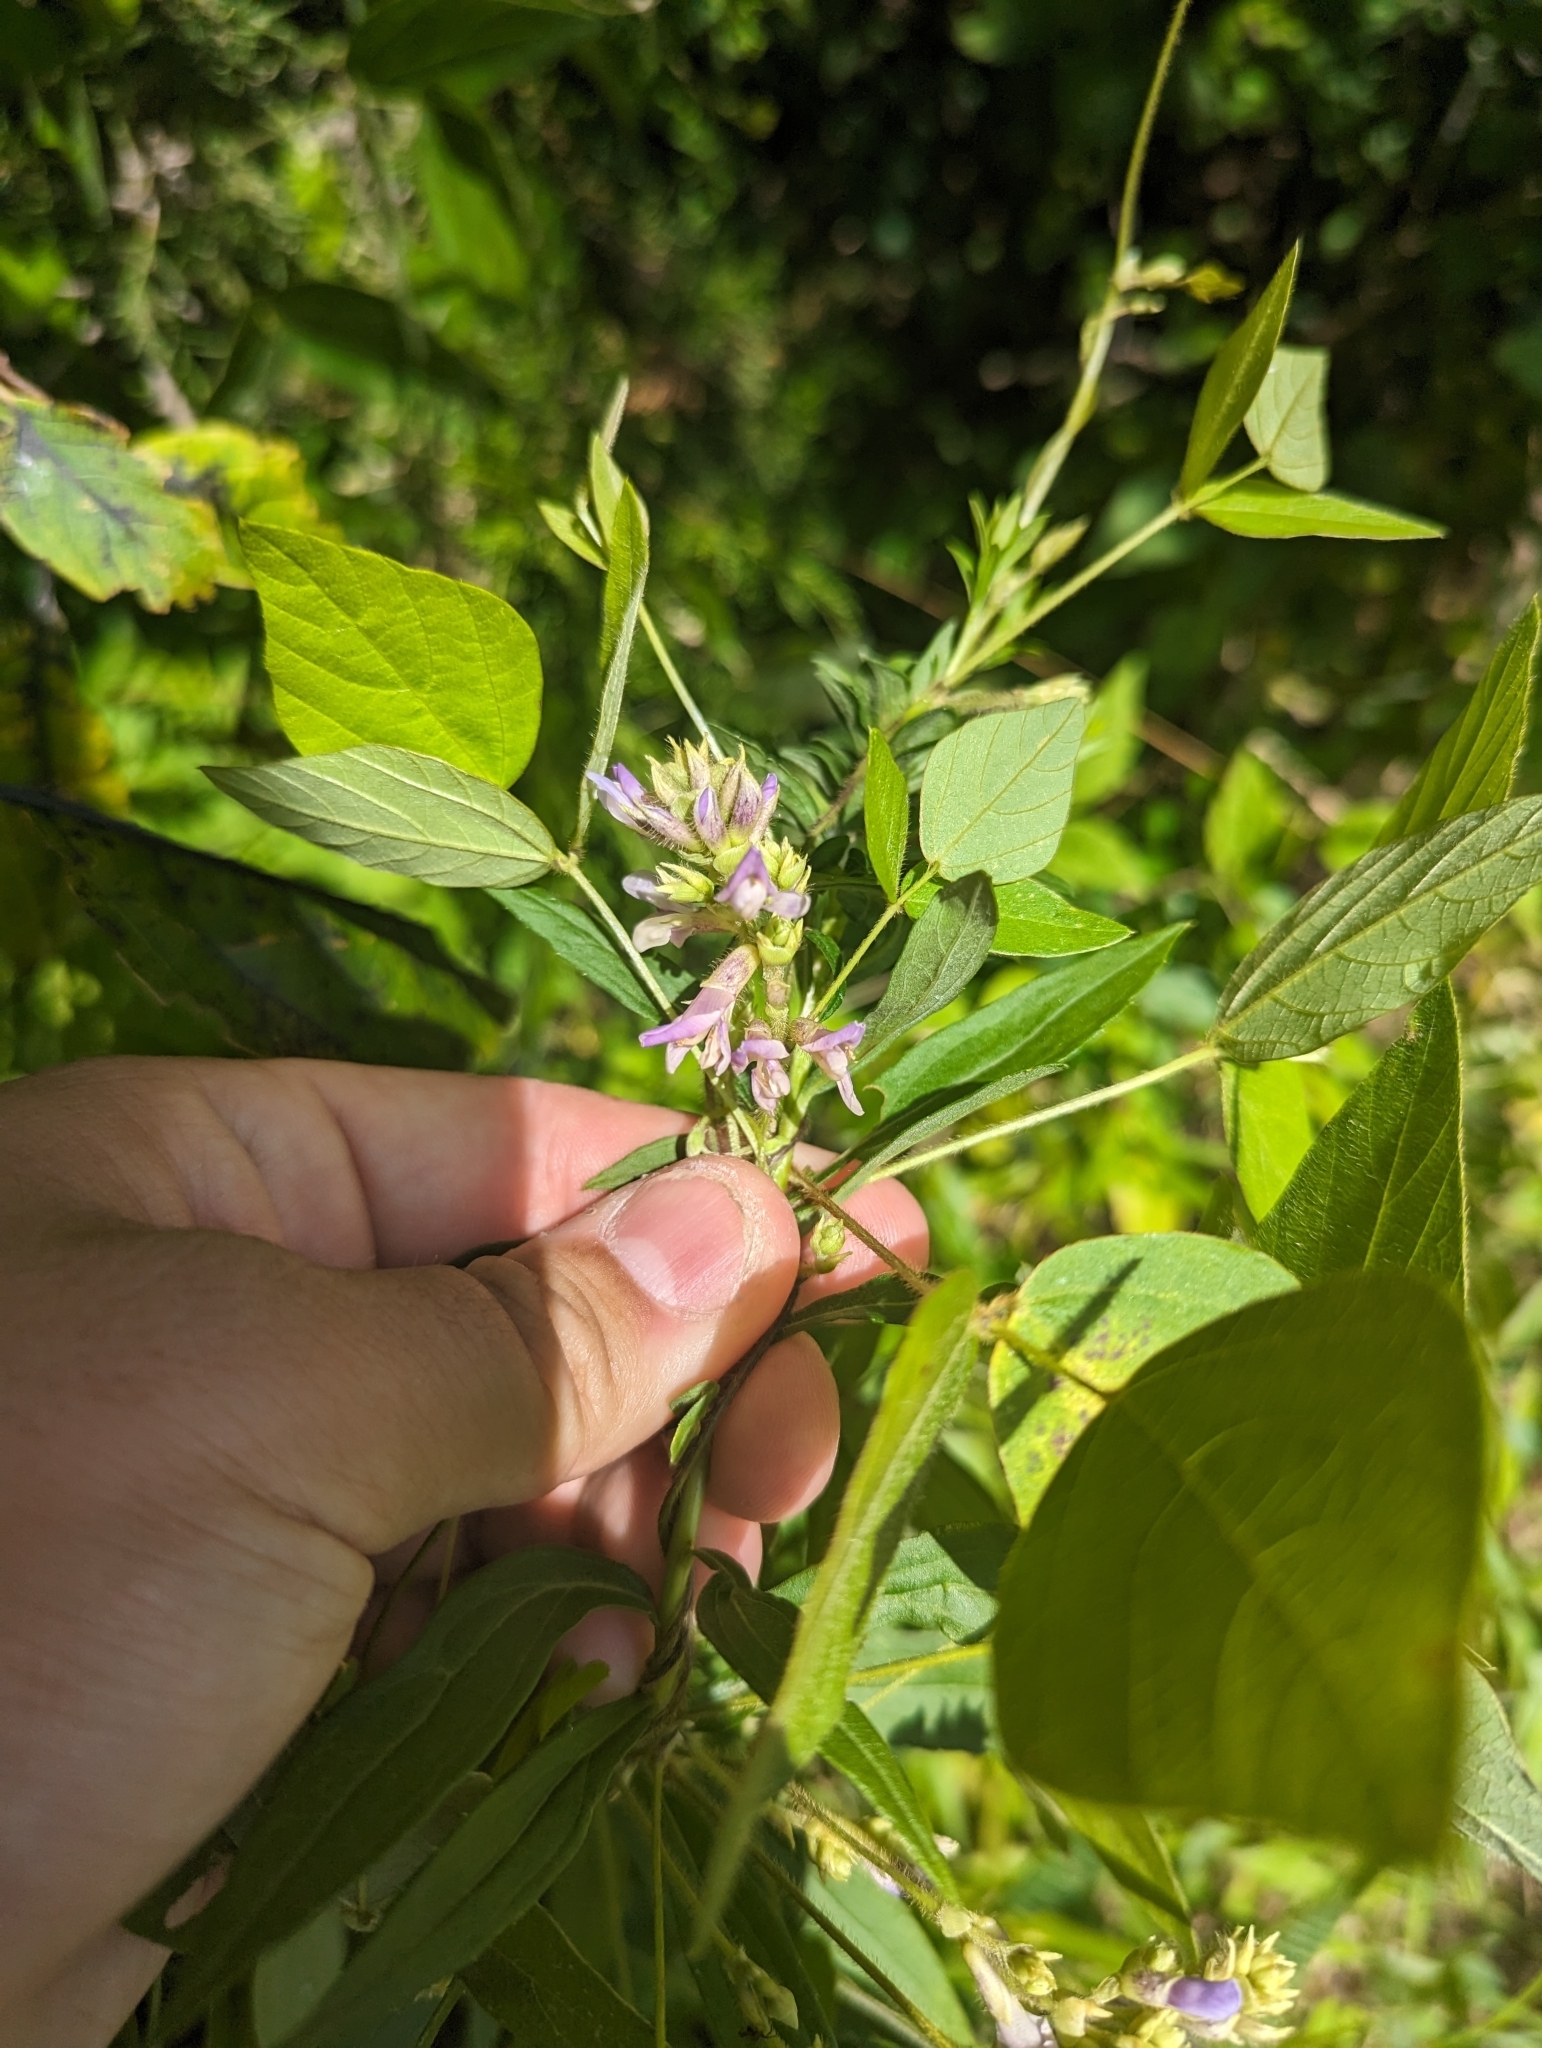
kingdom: Plantae
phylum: Tracheophyta
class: Magnoliopsida
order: Fabales
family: Fabaceae
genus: Amphicarpaea
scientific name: Amphicarpaea bracteata
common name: American hog peanut
